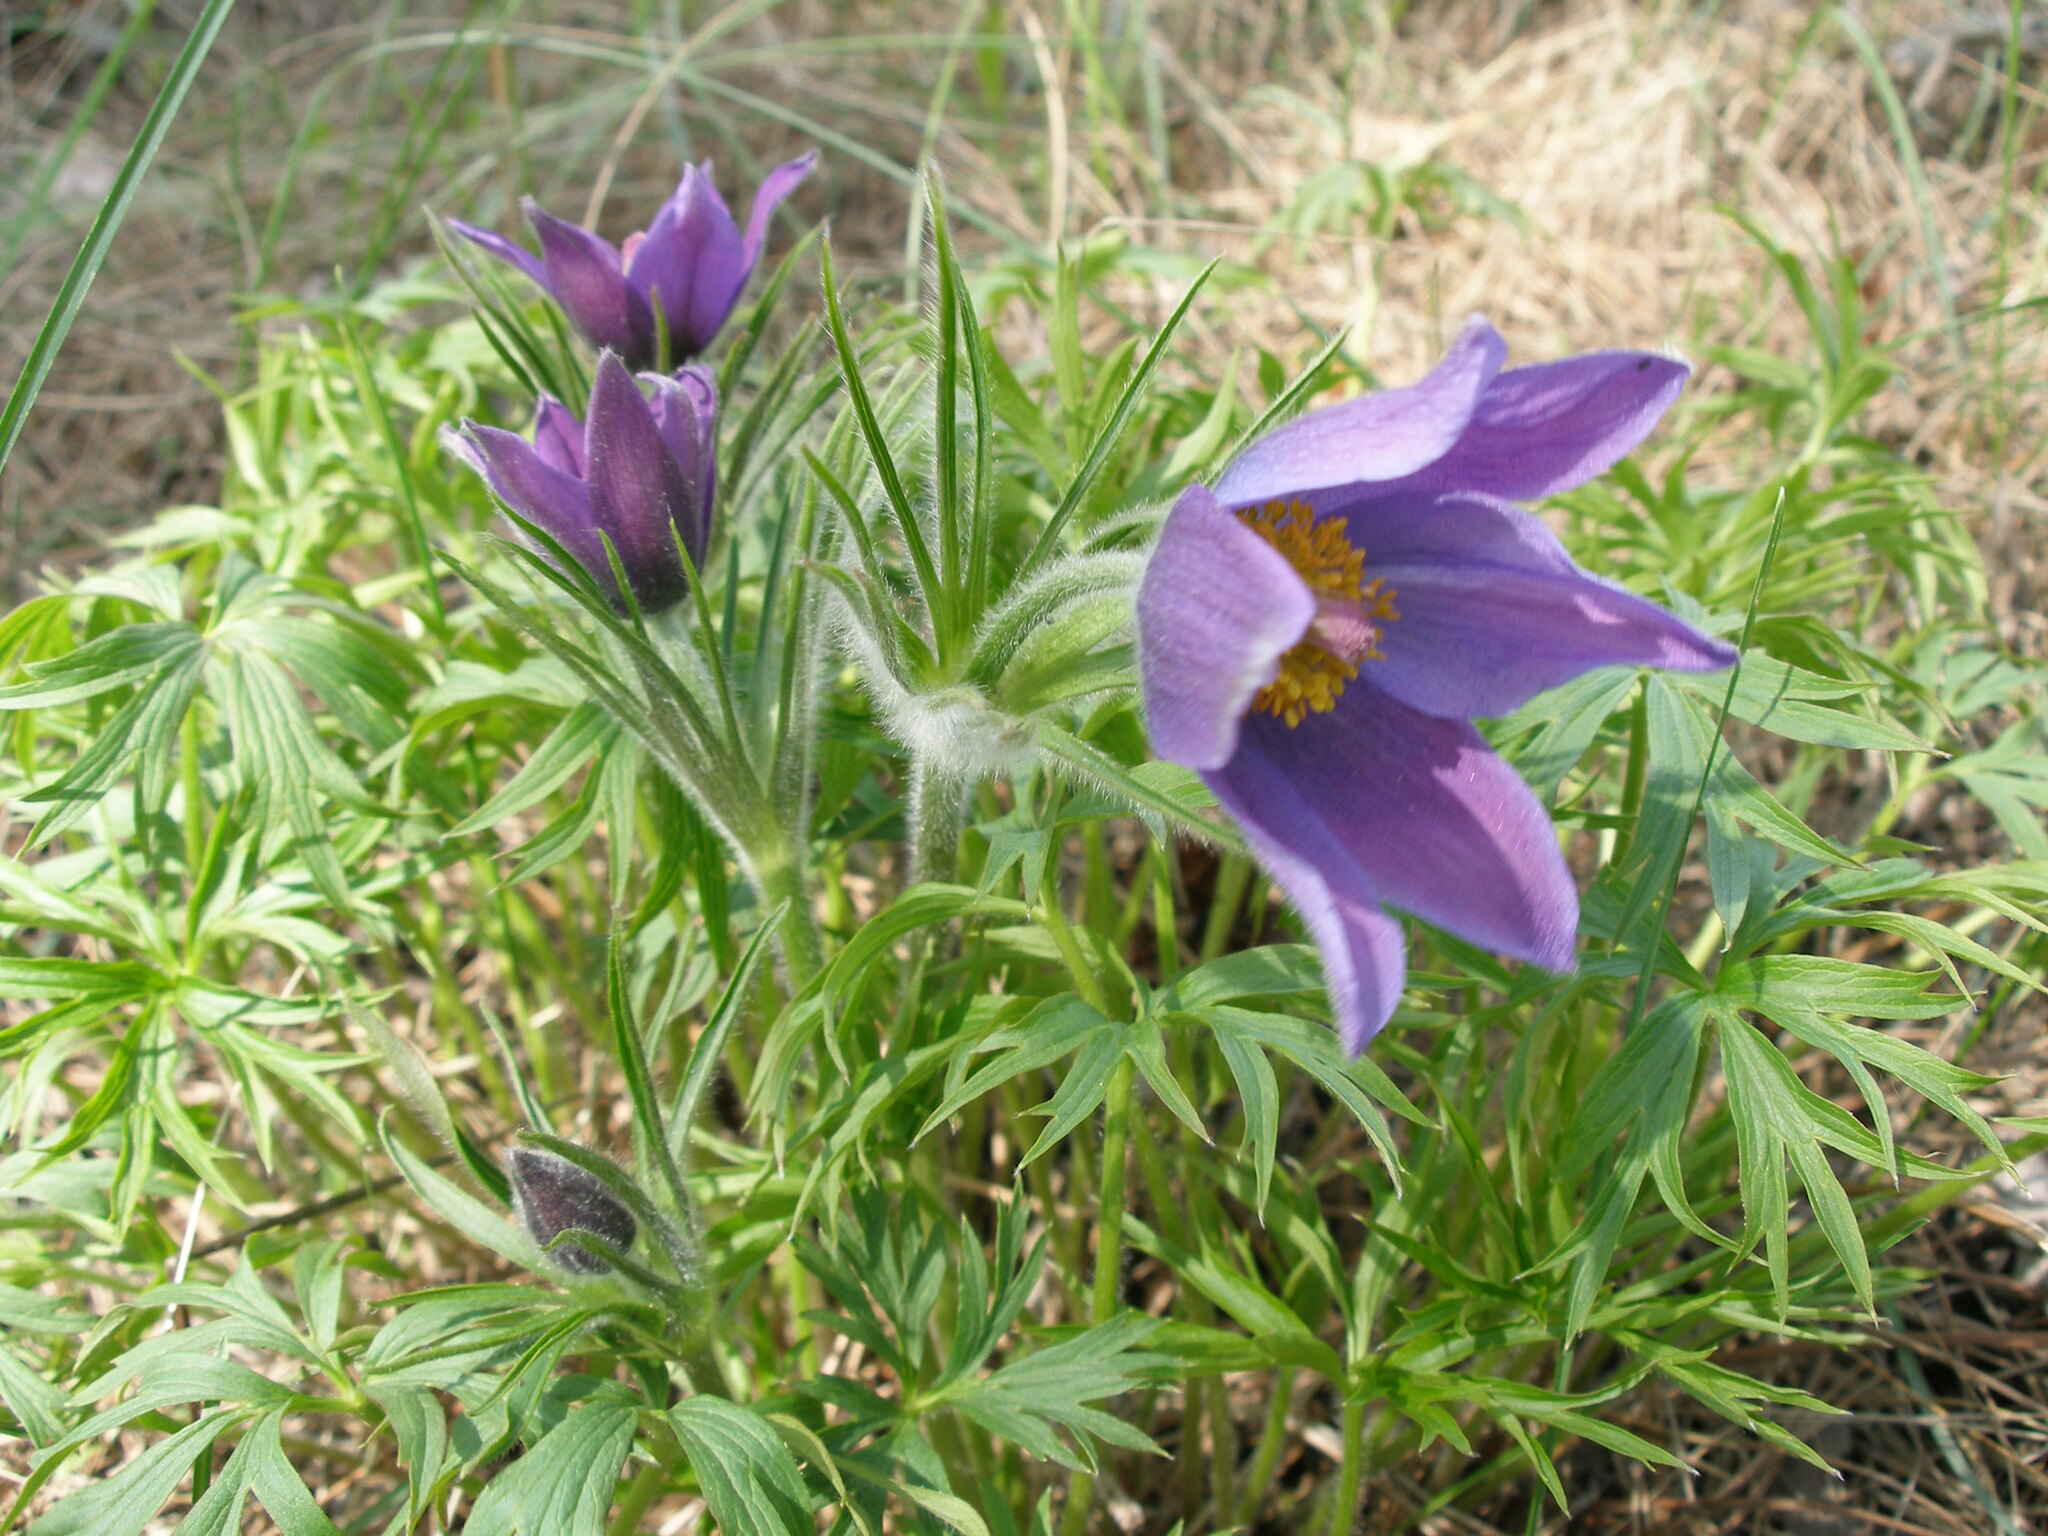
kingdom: Plantae
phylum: Tracheophyta
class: Magnoliopsida
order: Ranunculales
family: Ranunculaceae
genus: Pulsatilla
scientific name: Pulsatilla patens
